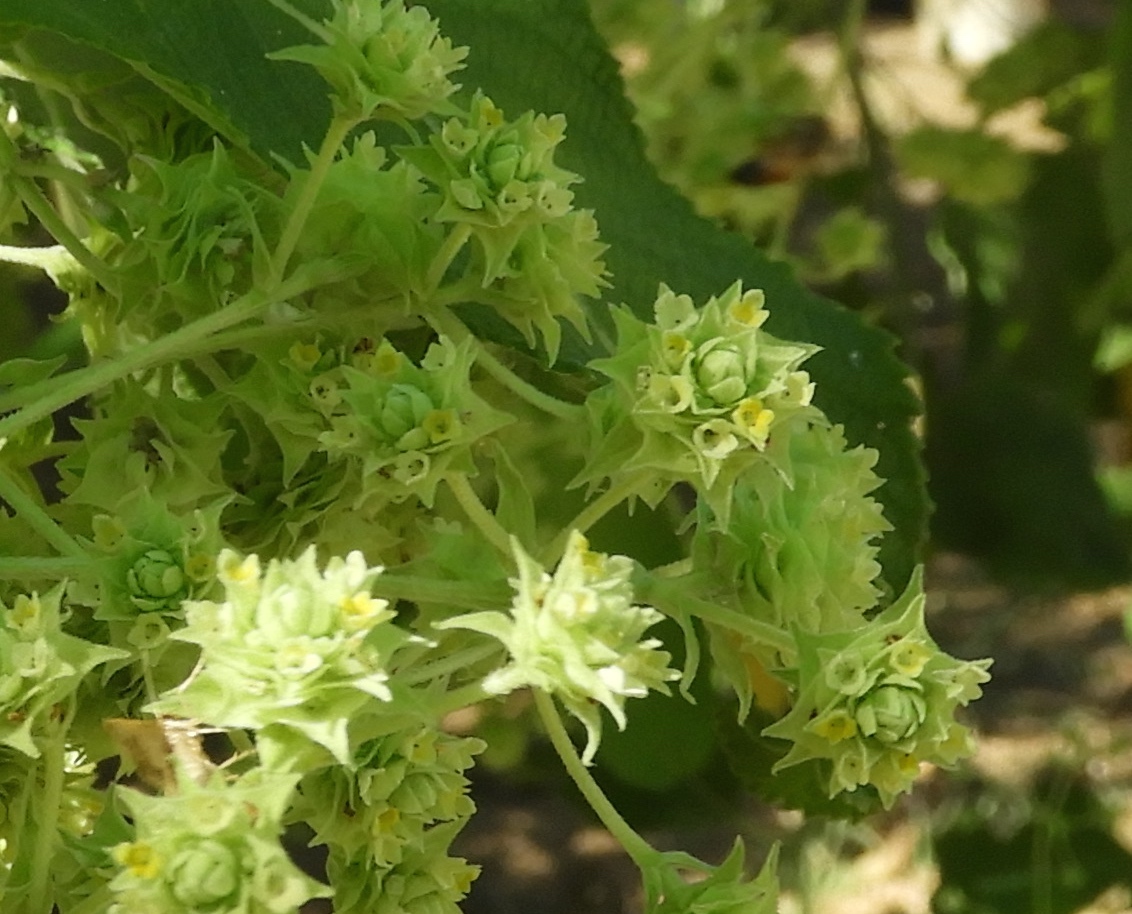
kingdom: Plantae
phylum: Tracheophyta
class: Magnoliopsida
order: Lamiales
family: Verbenaceae
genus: Lippia
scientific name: Lippia umbellata
